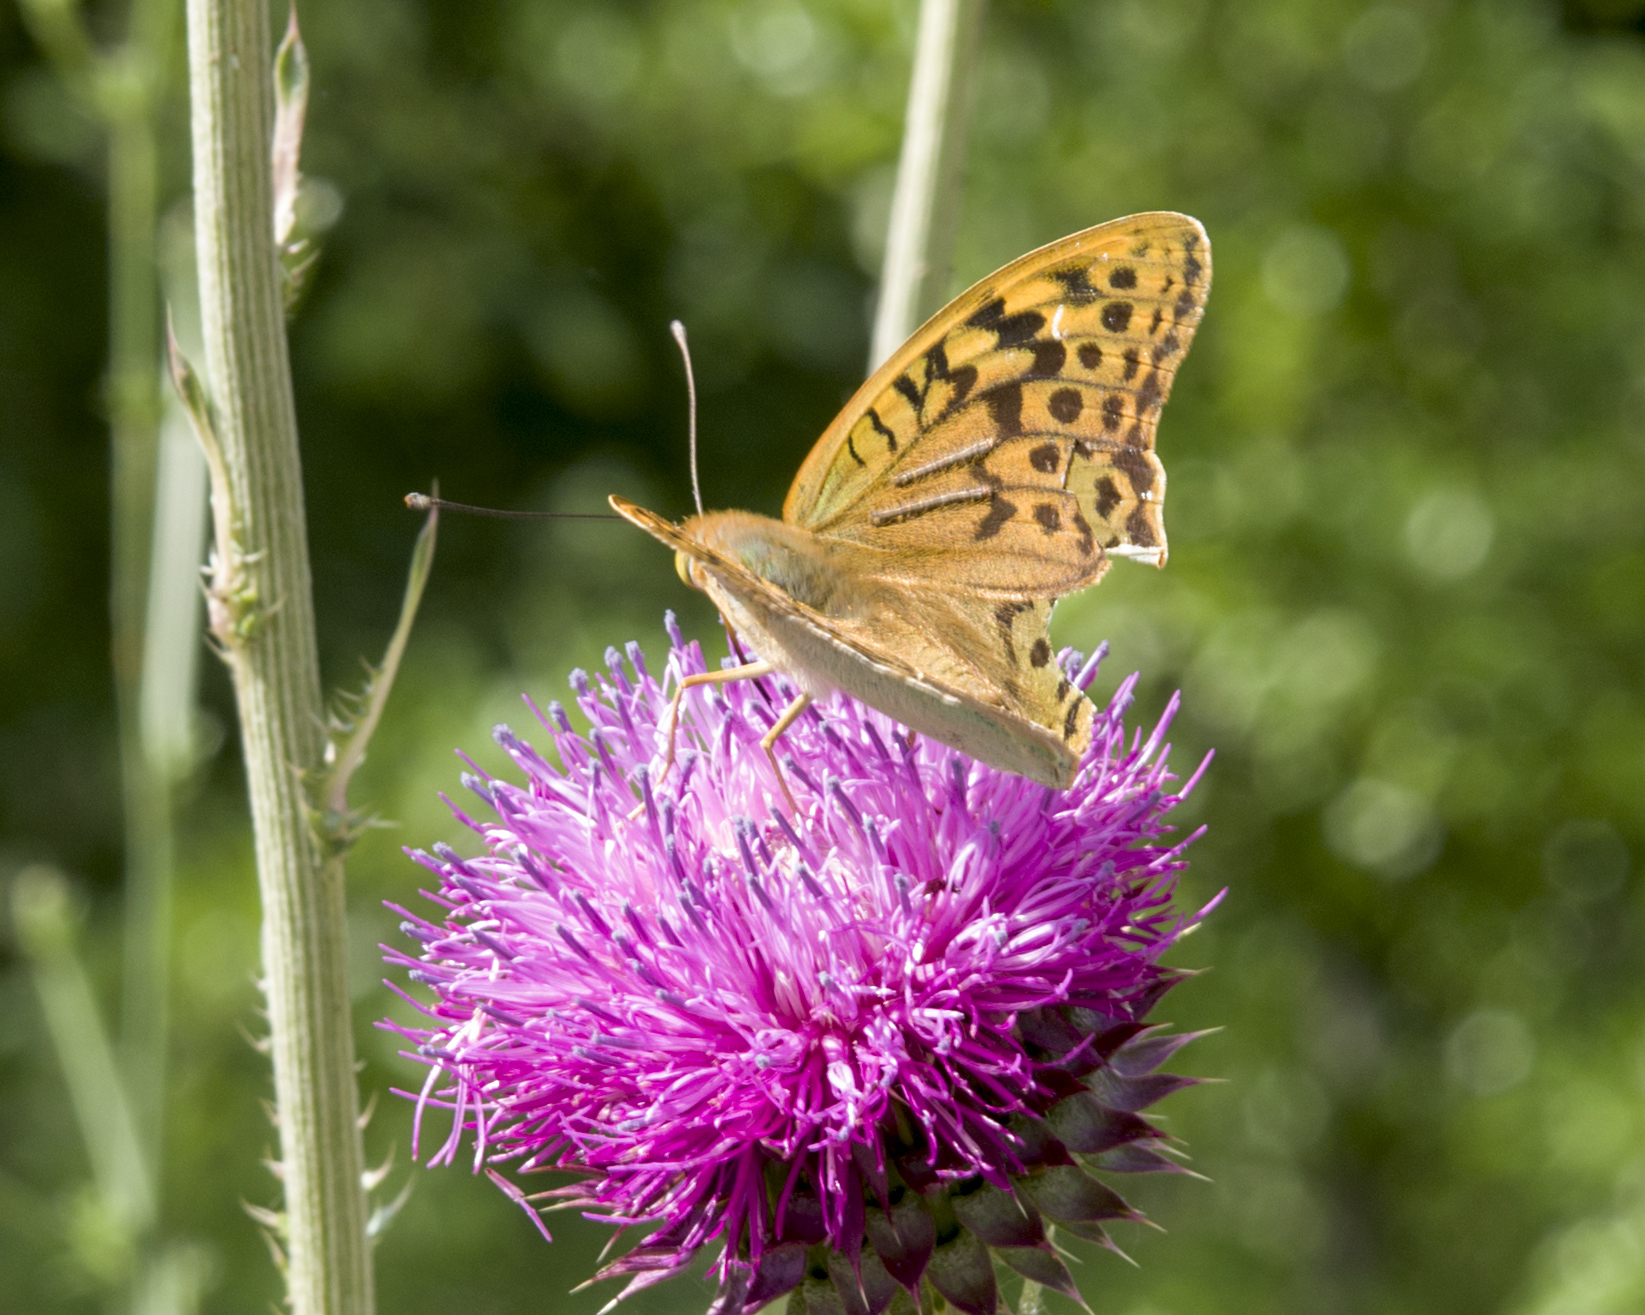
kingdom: Animalia
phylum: Arthropoda
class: Insecta
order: Lepidoptera
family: Nymphalidae
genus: Damora
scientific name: Damora pandora
